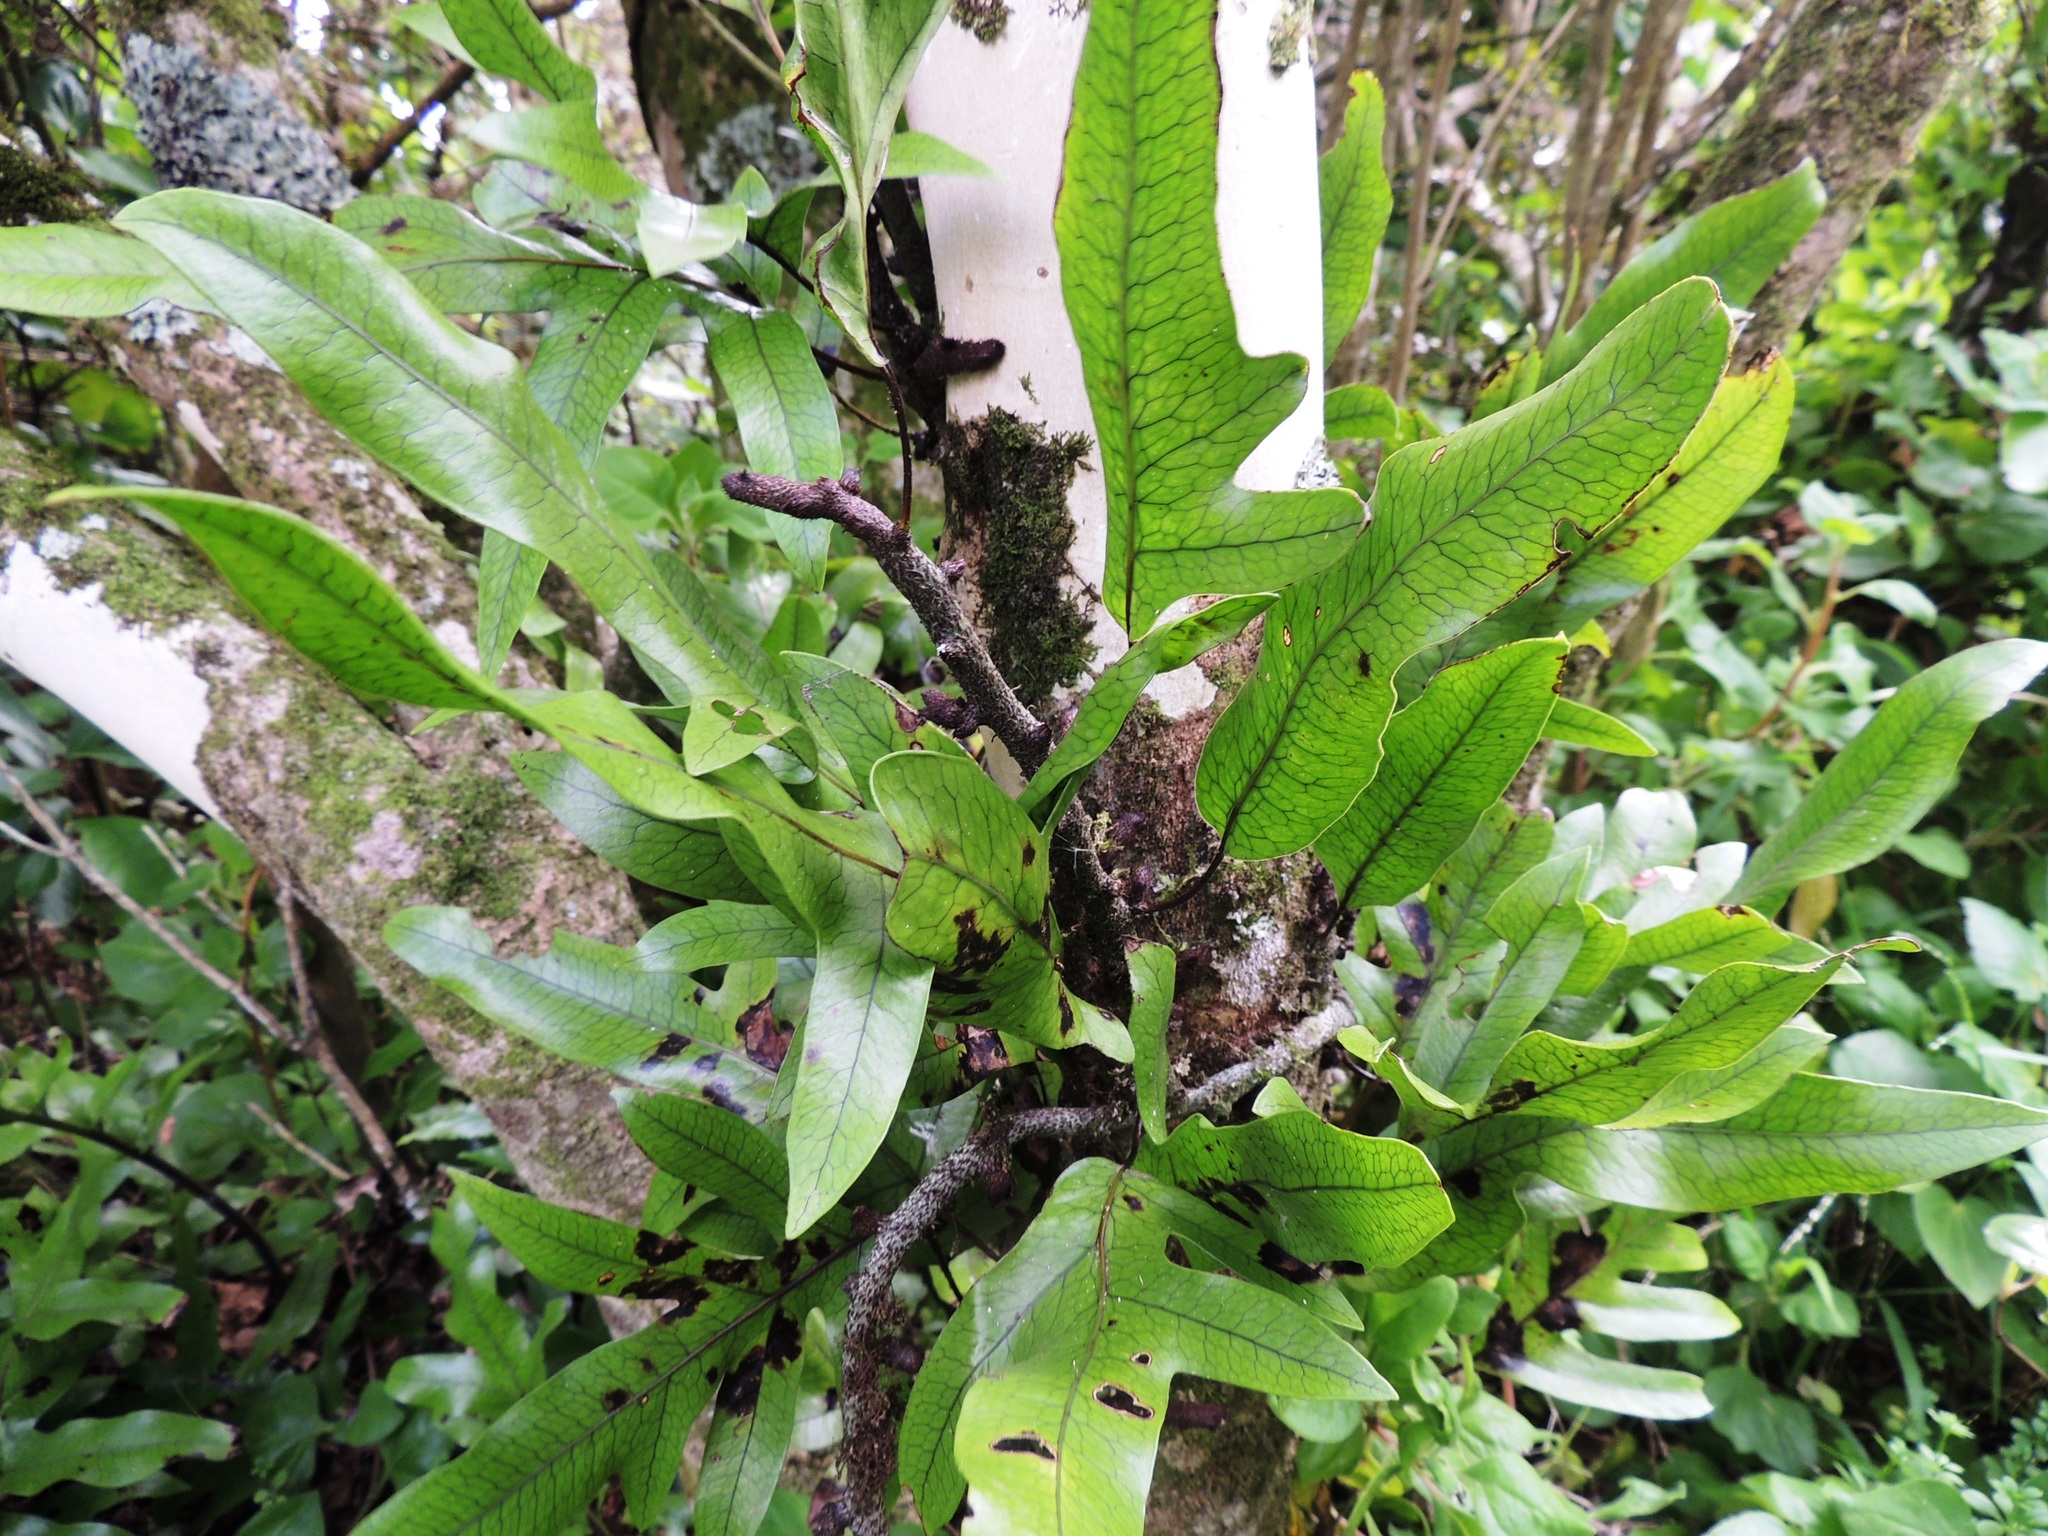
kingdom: Plantae
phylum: Tracheophyta
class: Polypodiopsida
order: Polypodiales
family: Polypodiaceae
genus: Lecanopteris
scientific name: Lecanopteris pustulata
